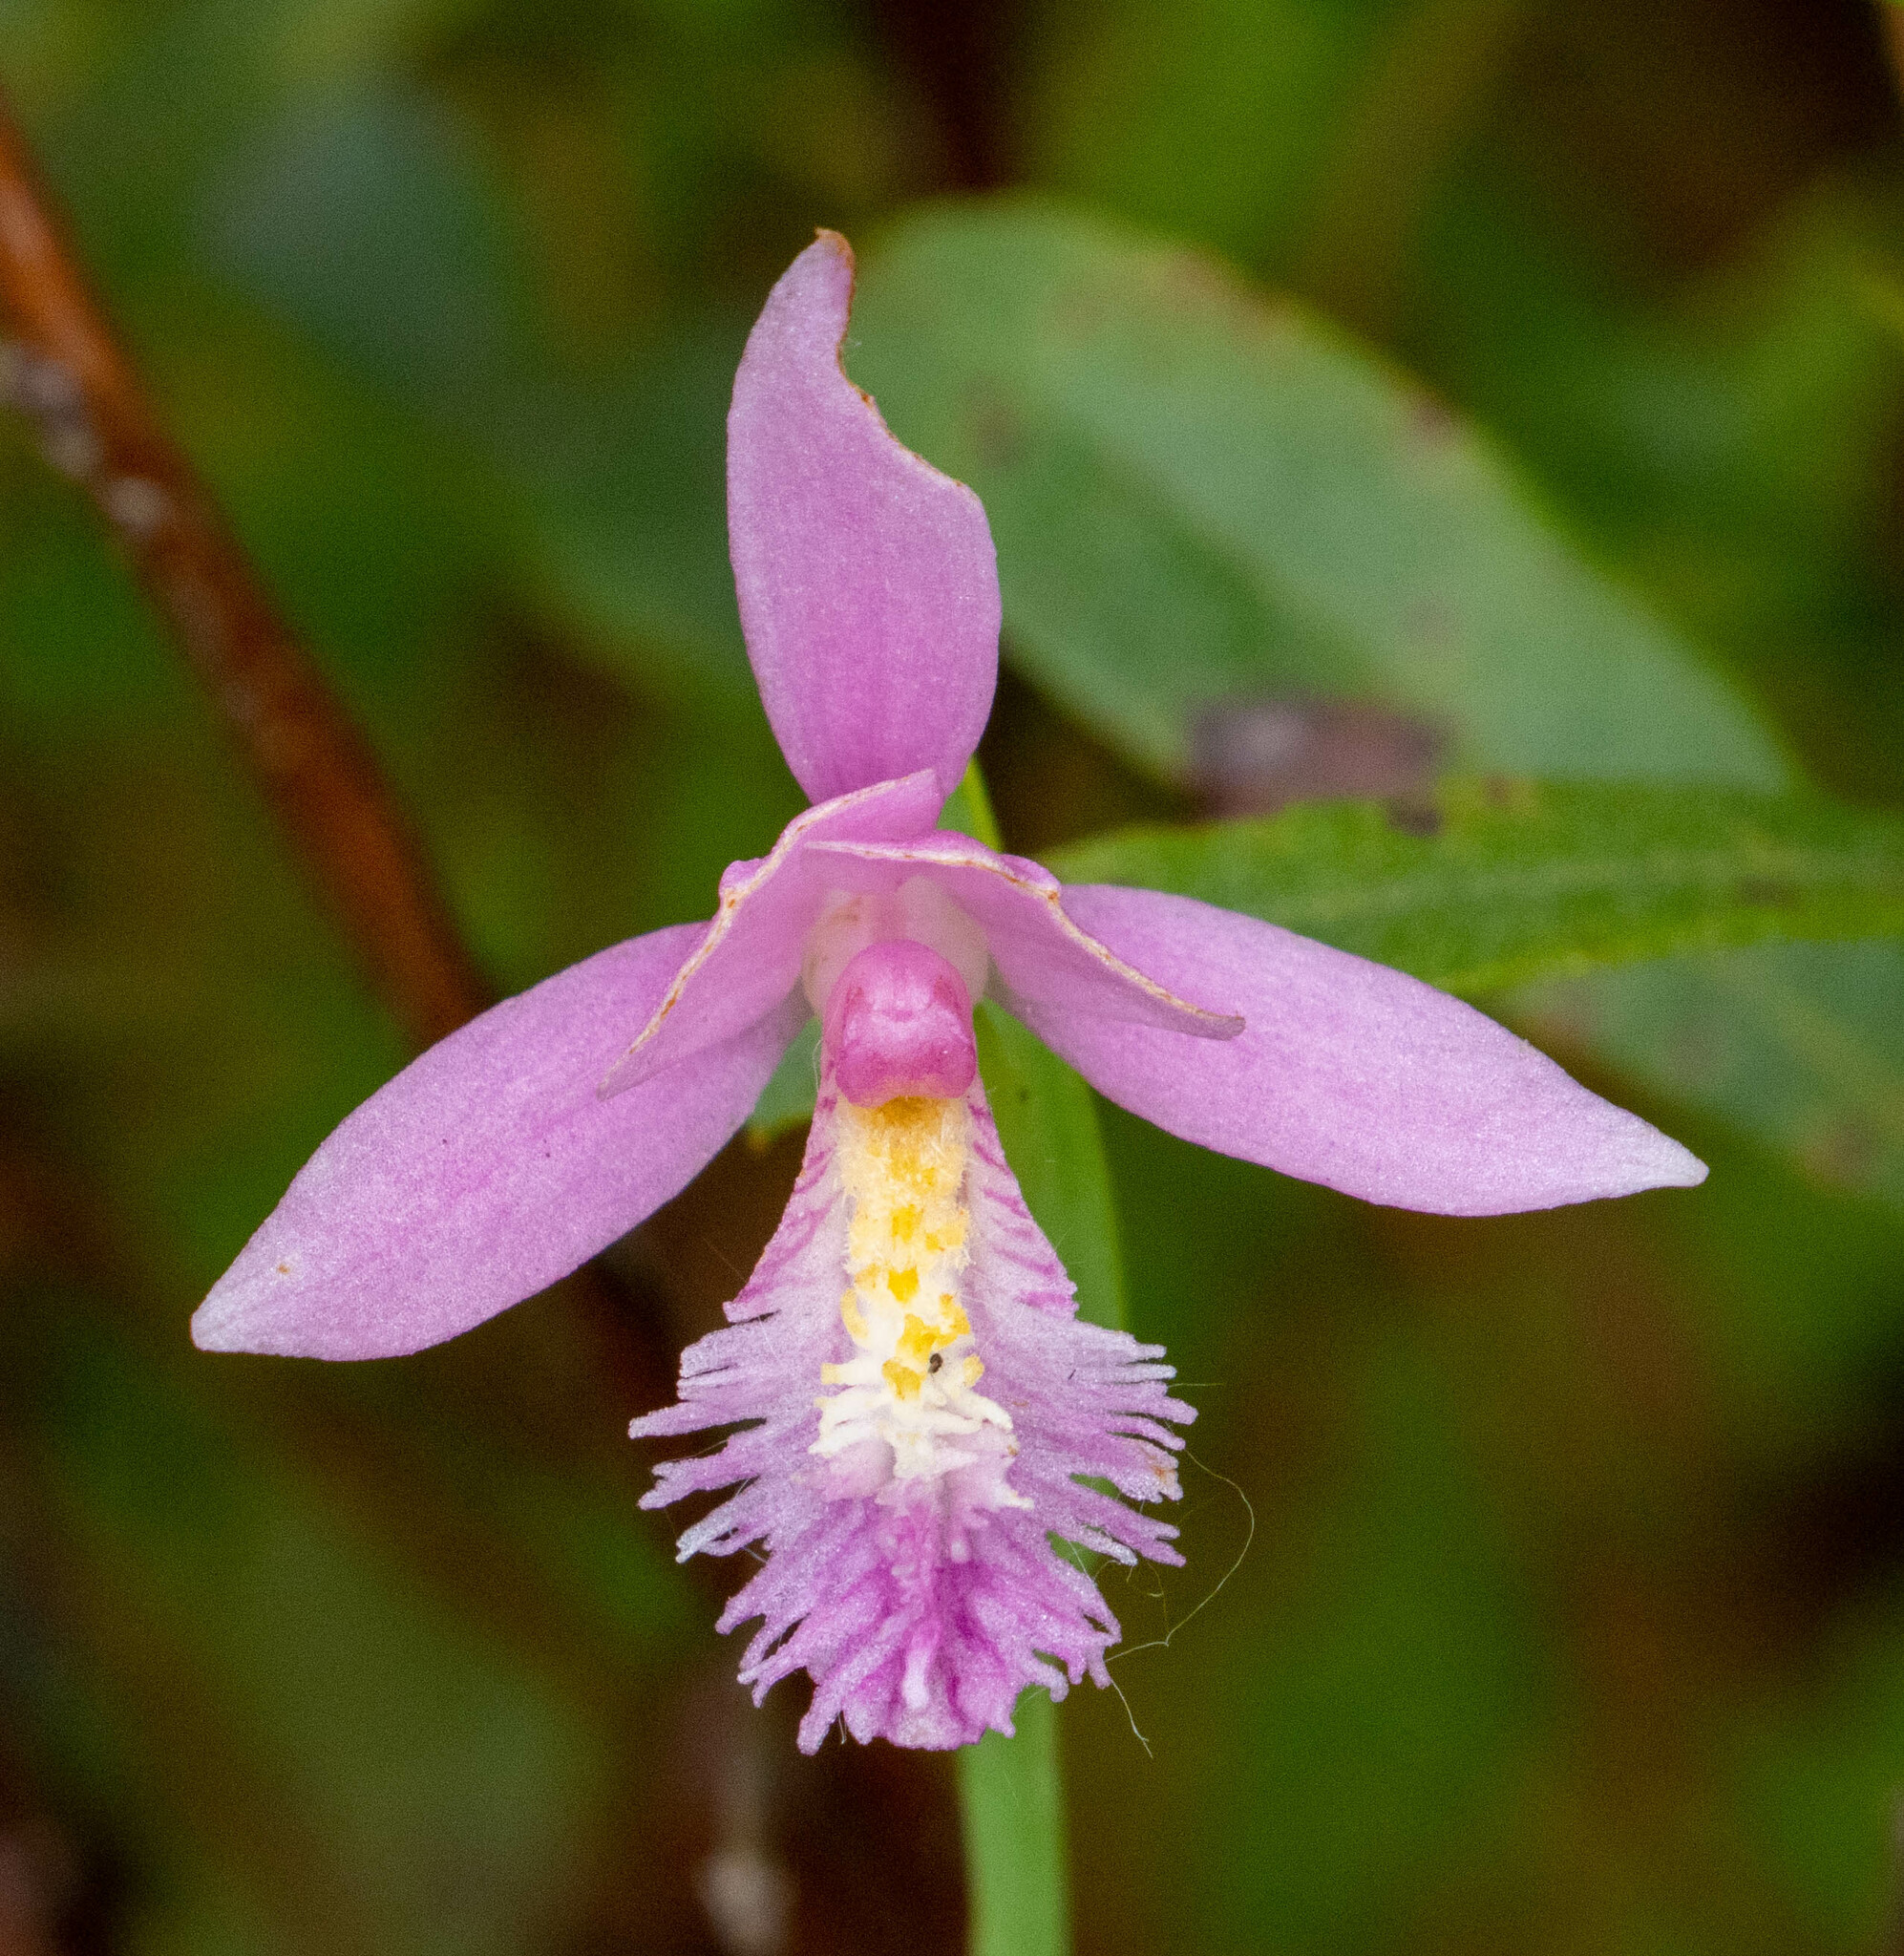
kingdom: Plantae
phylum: Tracheophyta
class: Liliopsida
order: Asparagales
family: Orchidaceae
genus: Pogonia
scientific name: Pogonia ophioglossoides
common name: Rose pogonia
